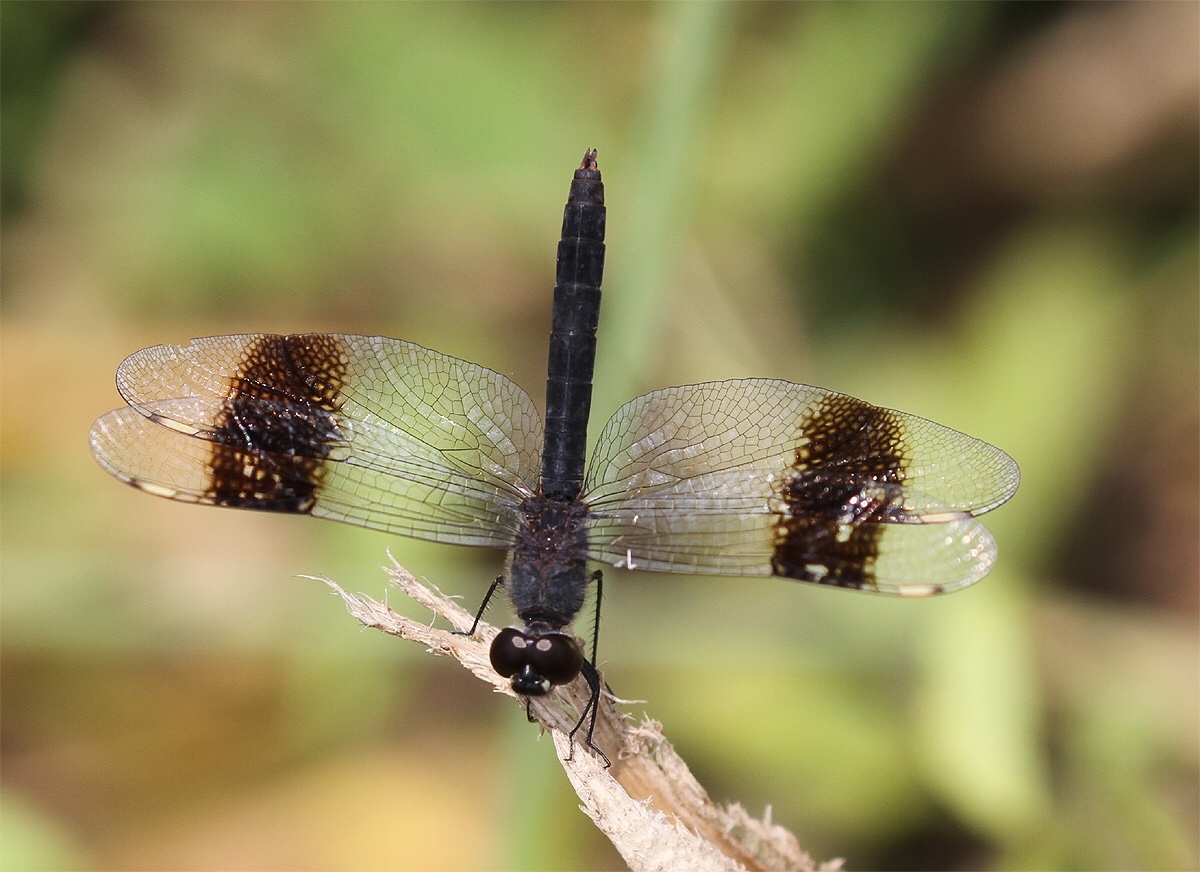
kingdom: Animalia
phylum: Arthropoda
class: Insecta
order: Odonata
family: Libellulidae
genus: Brachythemis
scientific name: Brachythemis leucosticta
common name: Banded groundling
